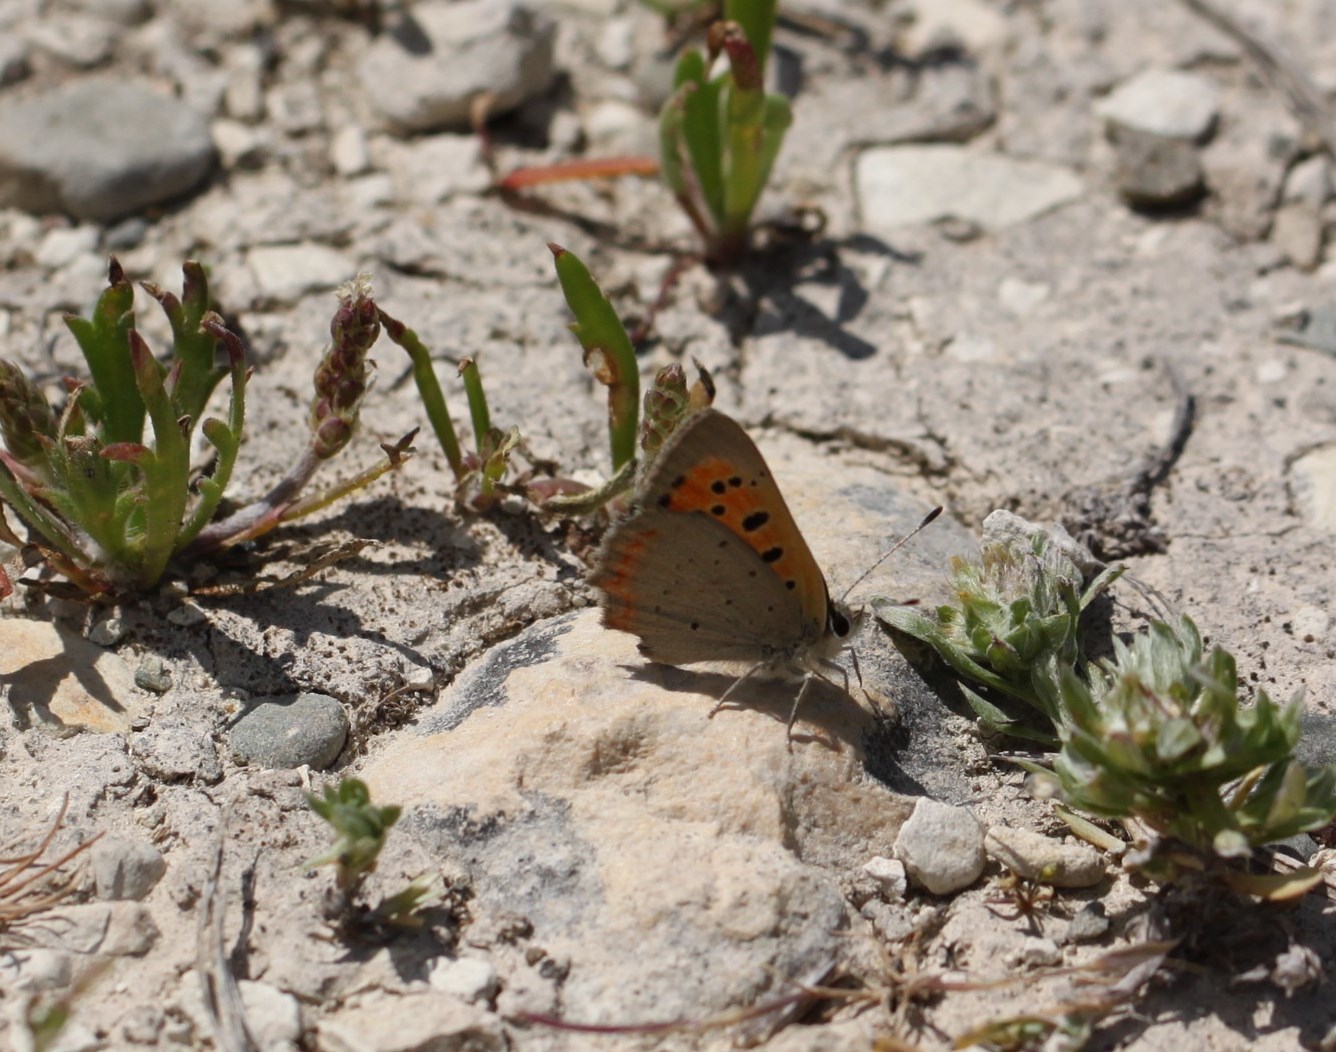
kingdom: Animalia
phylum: Arthropoda
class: Insecta
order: Lepidoptera
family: Lycaenidae
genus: Lycaena
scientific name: Lycaena phlaeas
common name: Small copper
